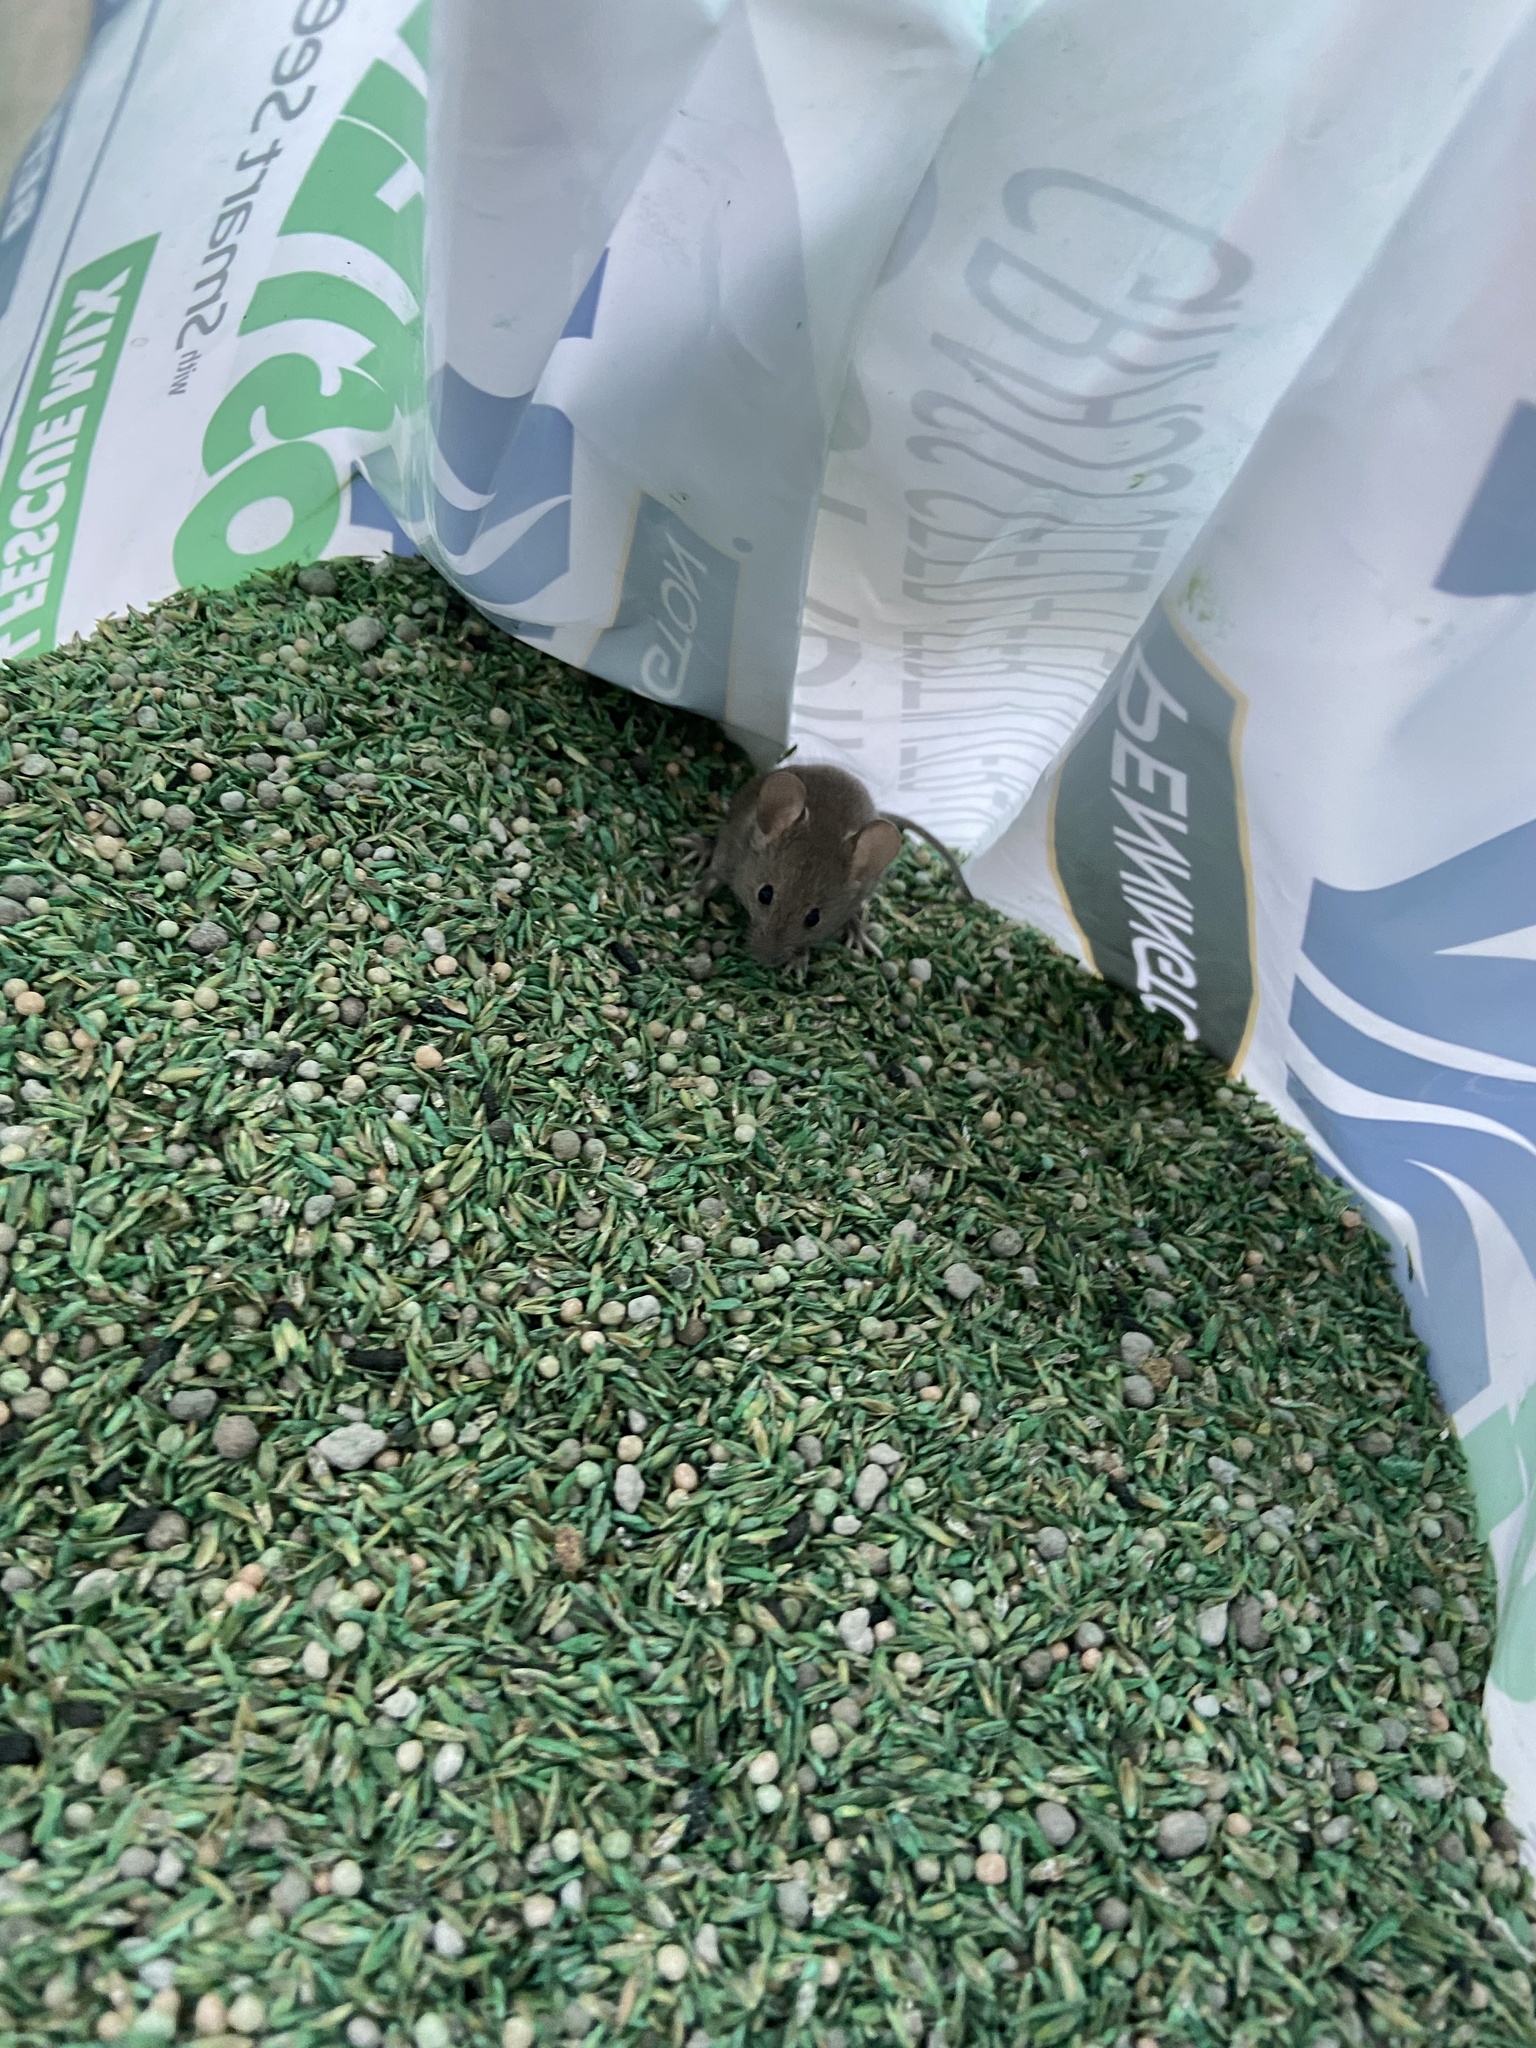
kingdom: Animalia
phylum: Chordata
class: Mammalia
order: Rodentia
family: Muridae
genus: Mus
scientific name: Mus musculus
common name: House mouse
